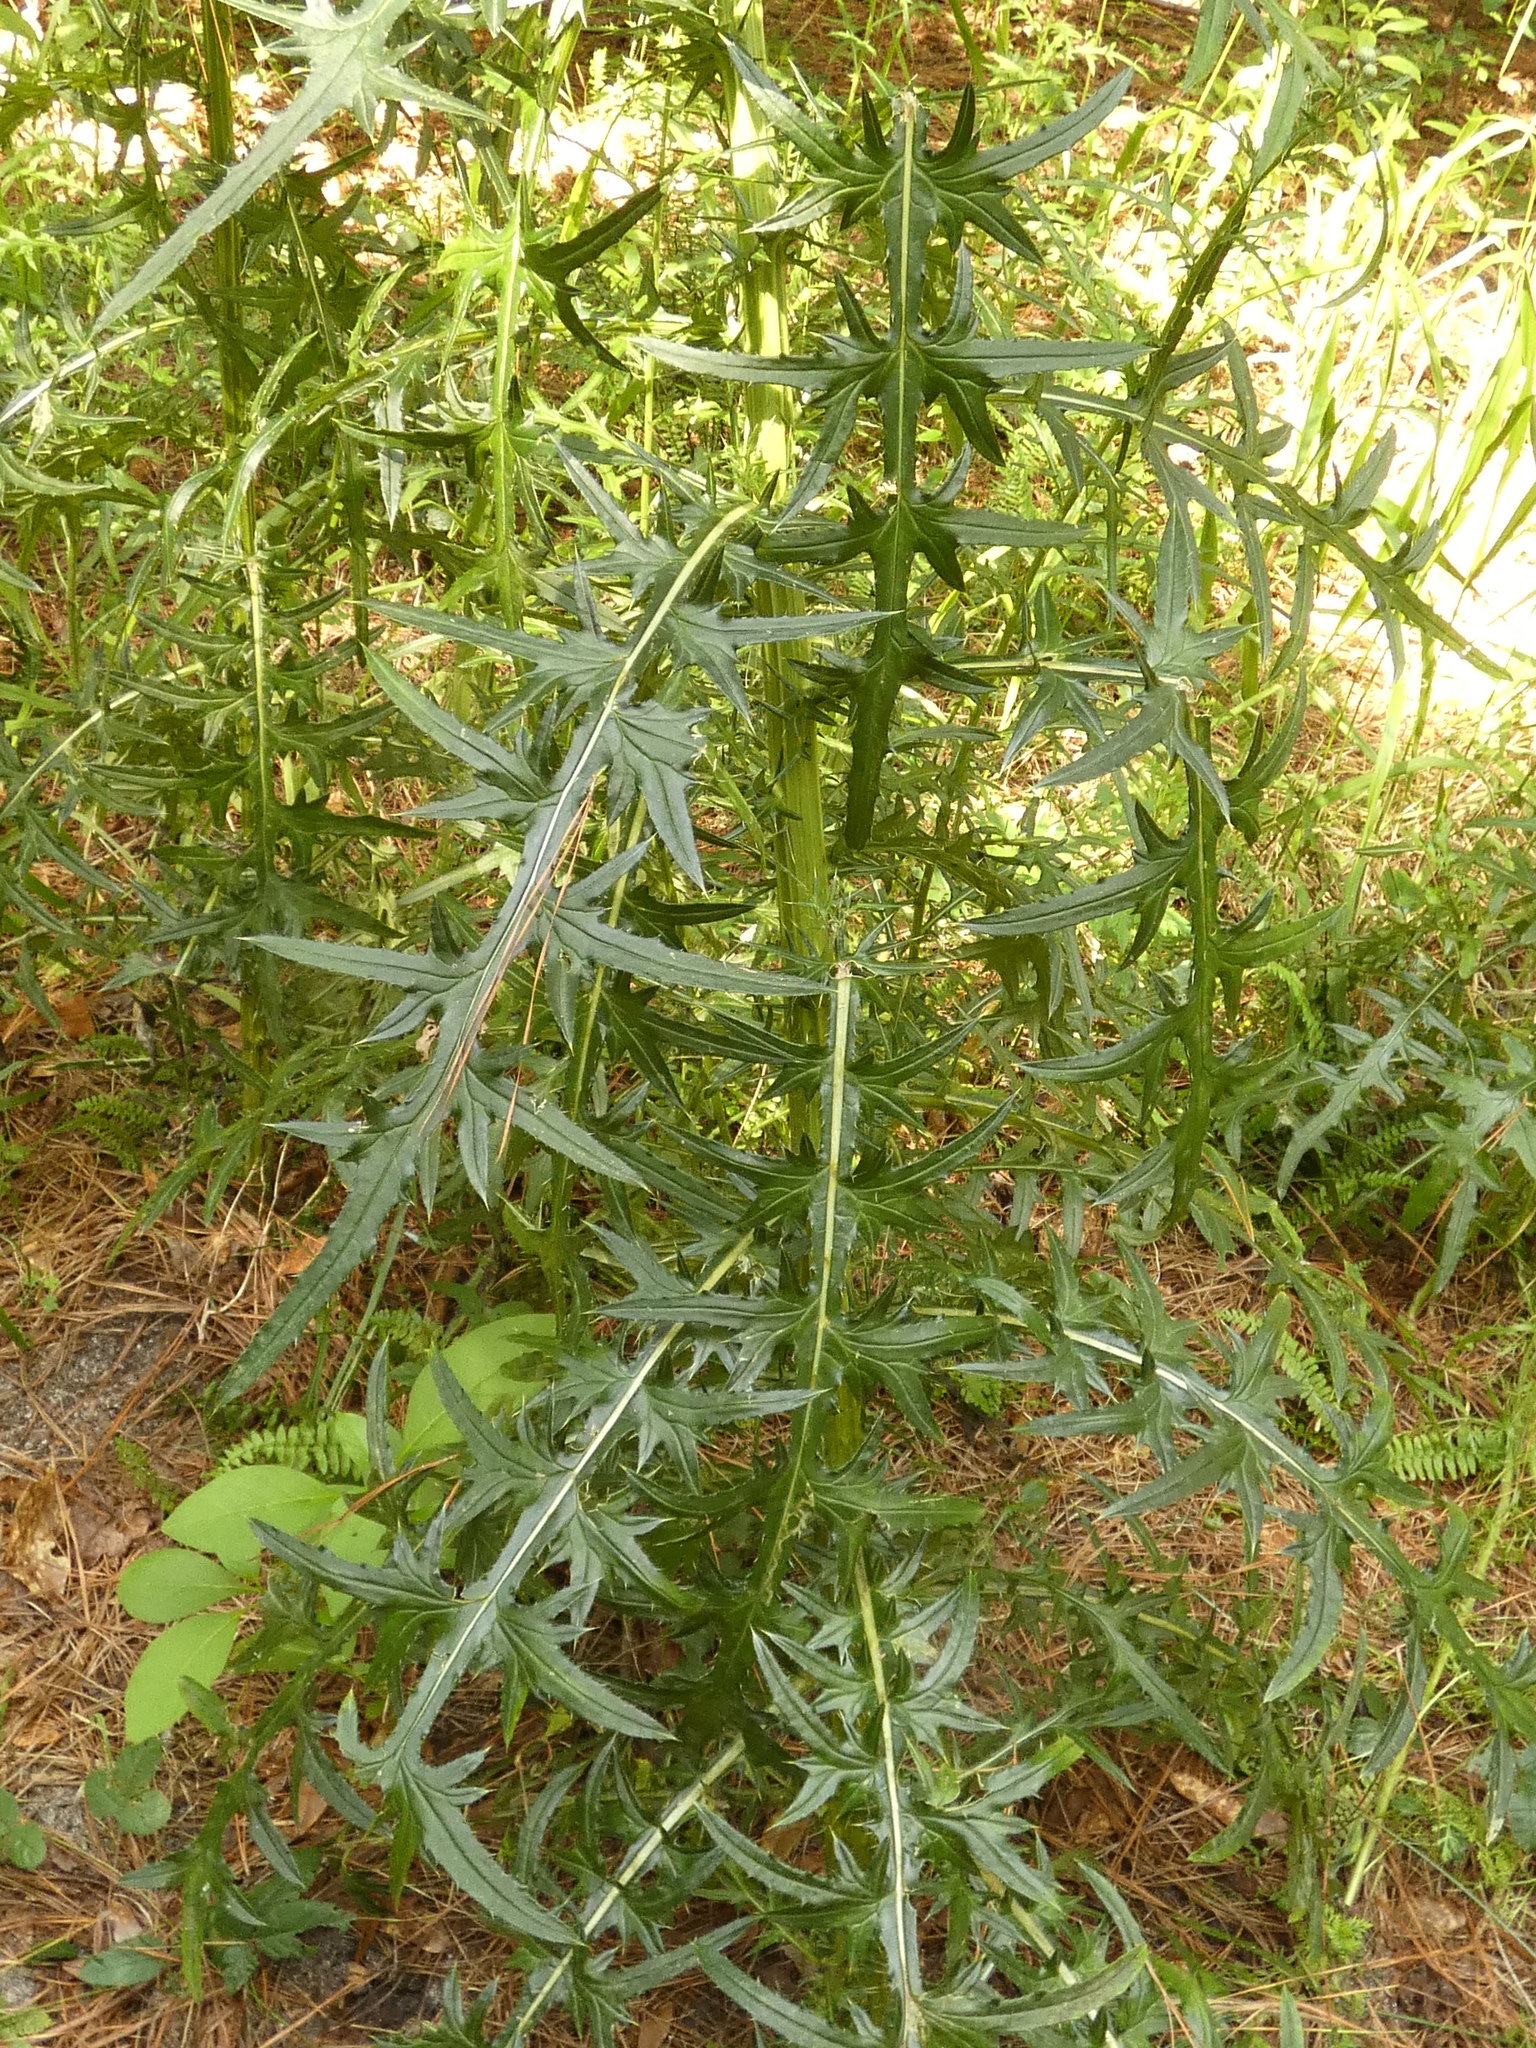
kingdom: Plantae
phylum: Tracheophyta
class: Magnoliopsida
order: Asterales
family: Asteraceae
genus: Cirsium
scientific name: Cirsium nuttalii
